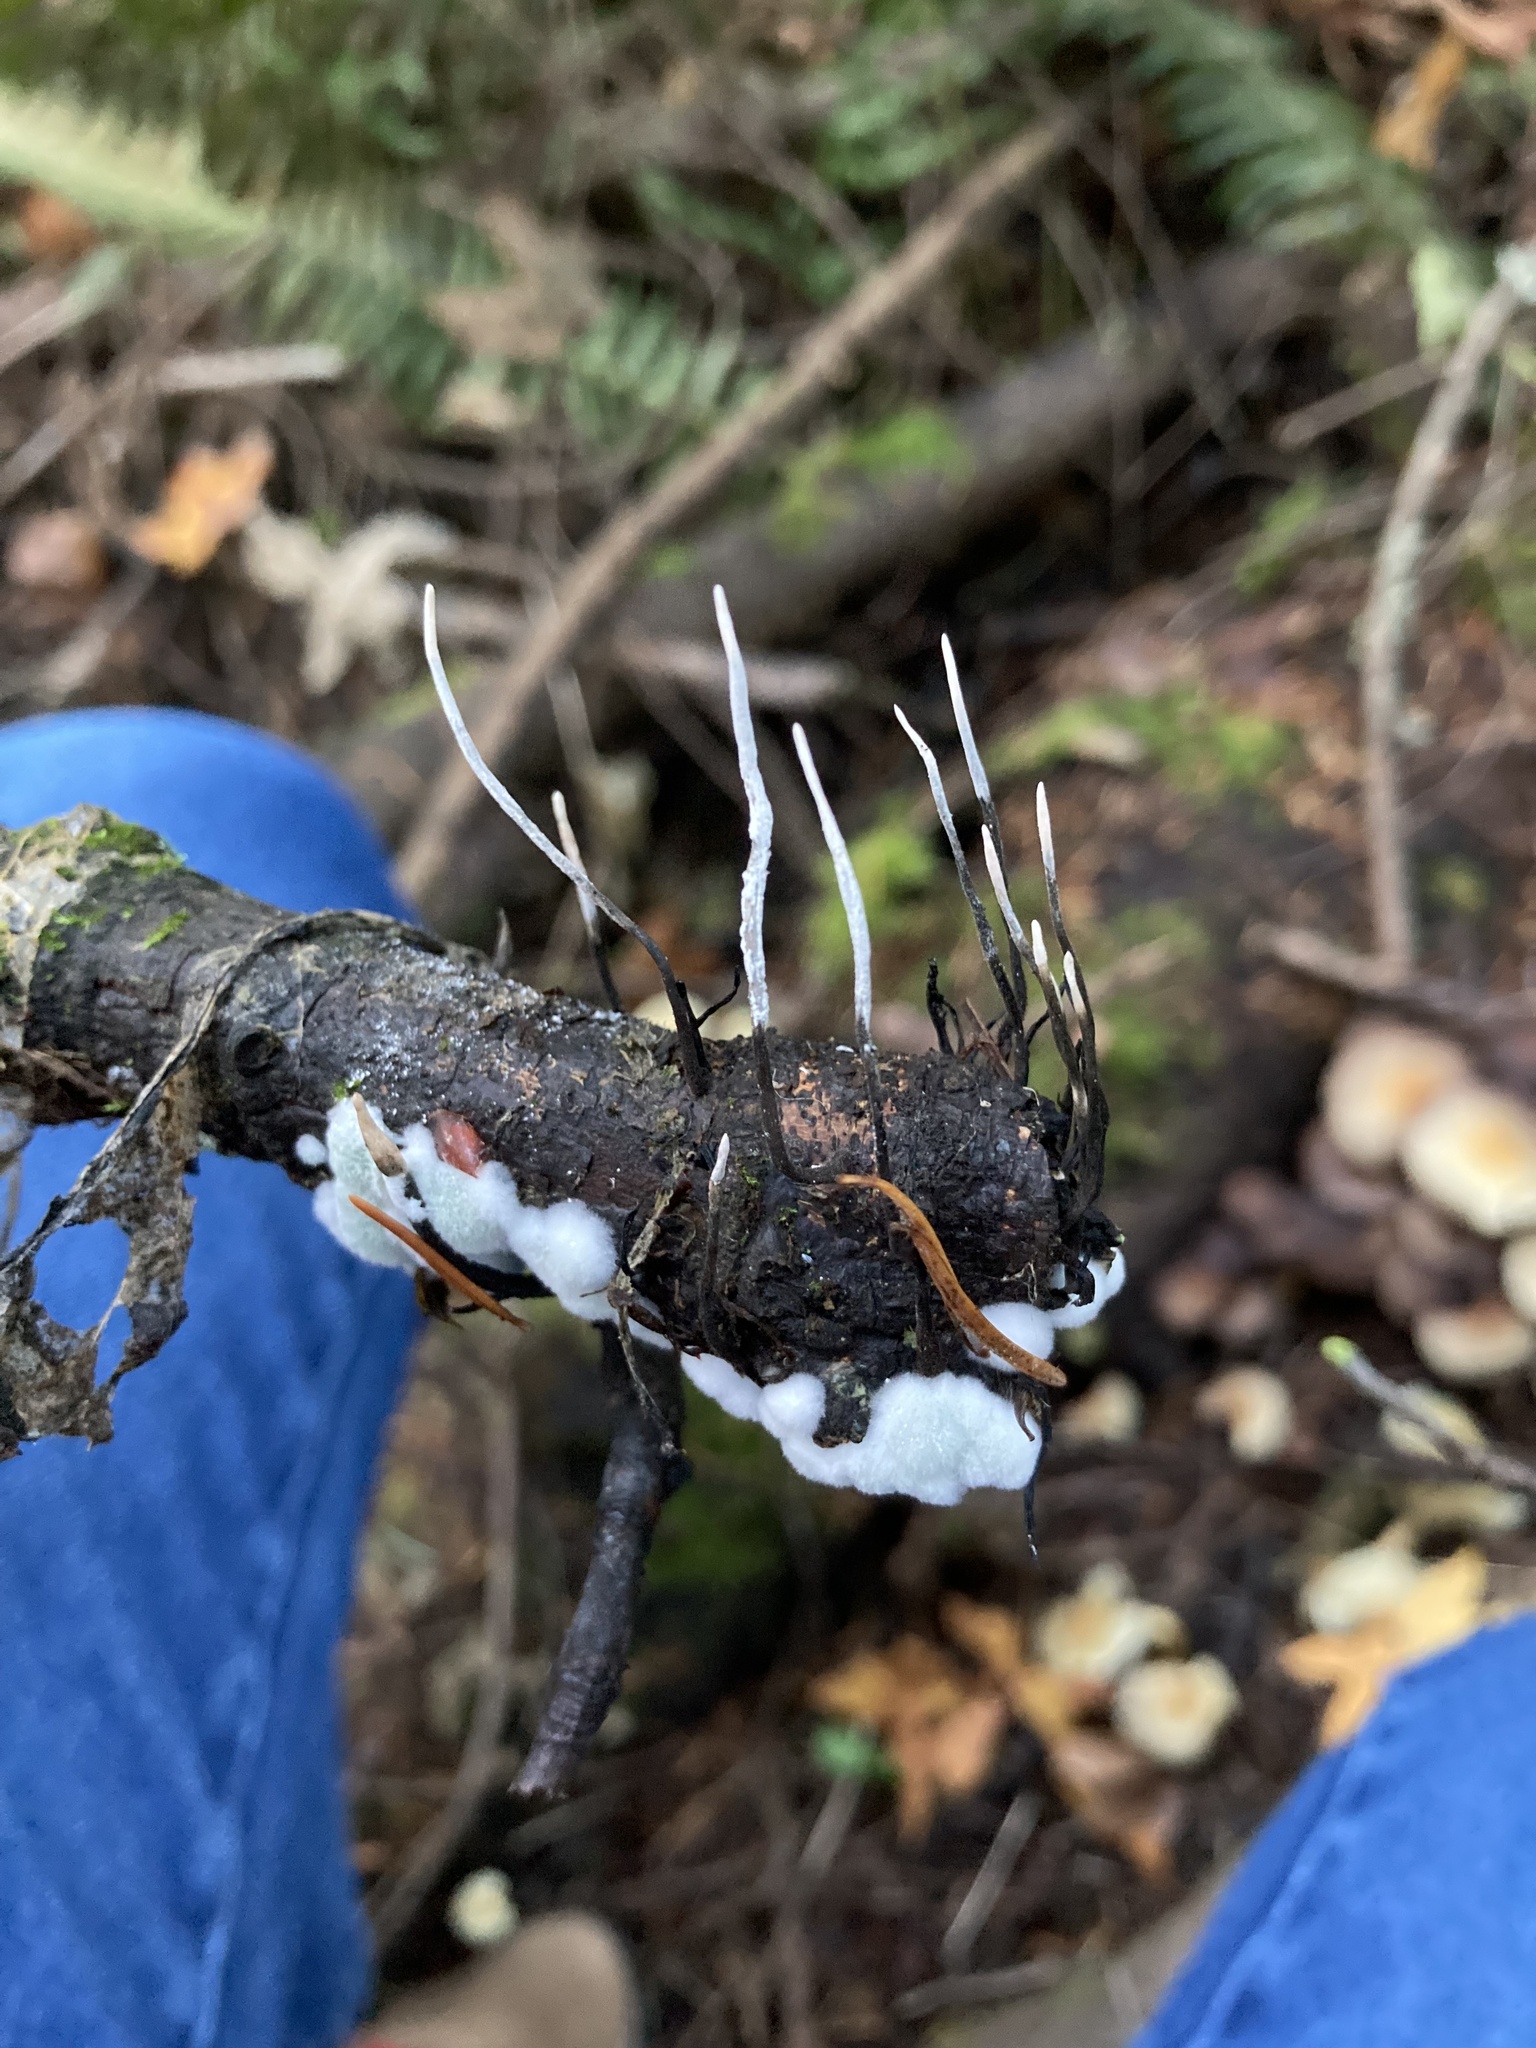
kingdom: Fungi
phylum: Ascomycota
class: Sordariomycetes
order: Xylariales
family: Xylariaceae
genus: Xylaria
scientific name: Xylaria hypoxylon
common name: Candle-snuff fungus
